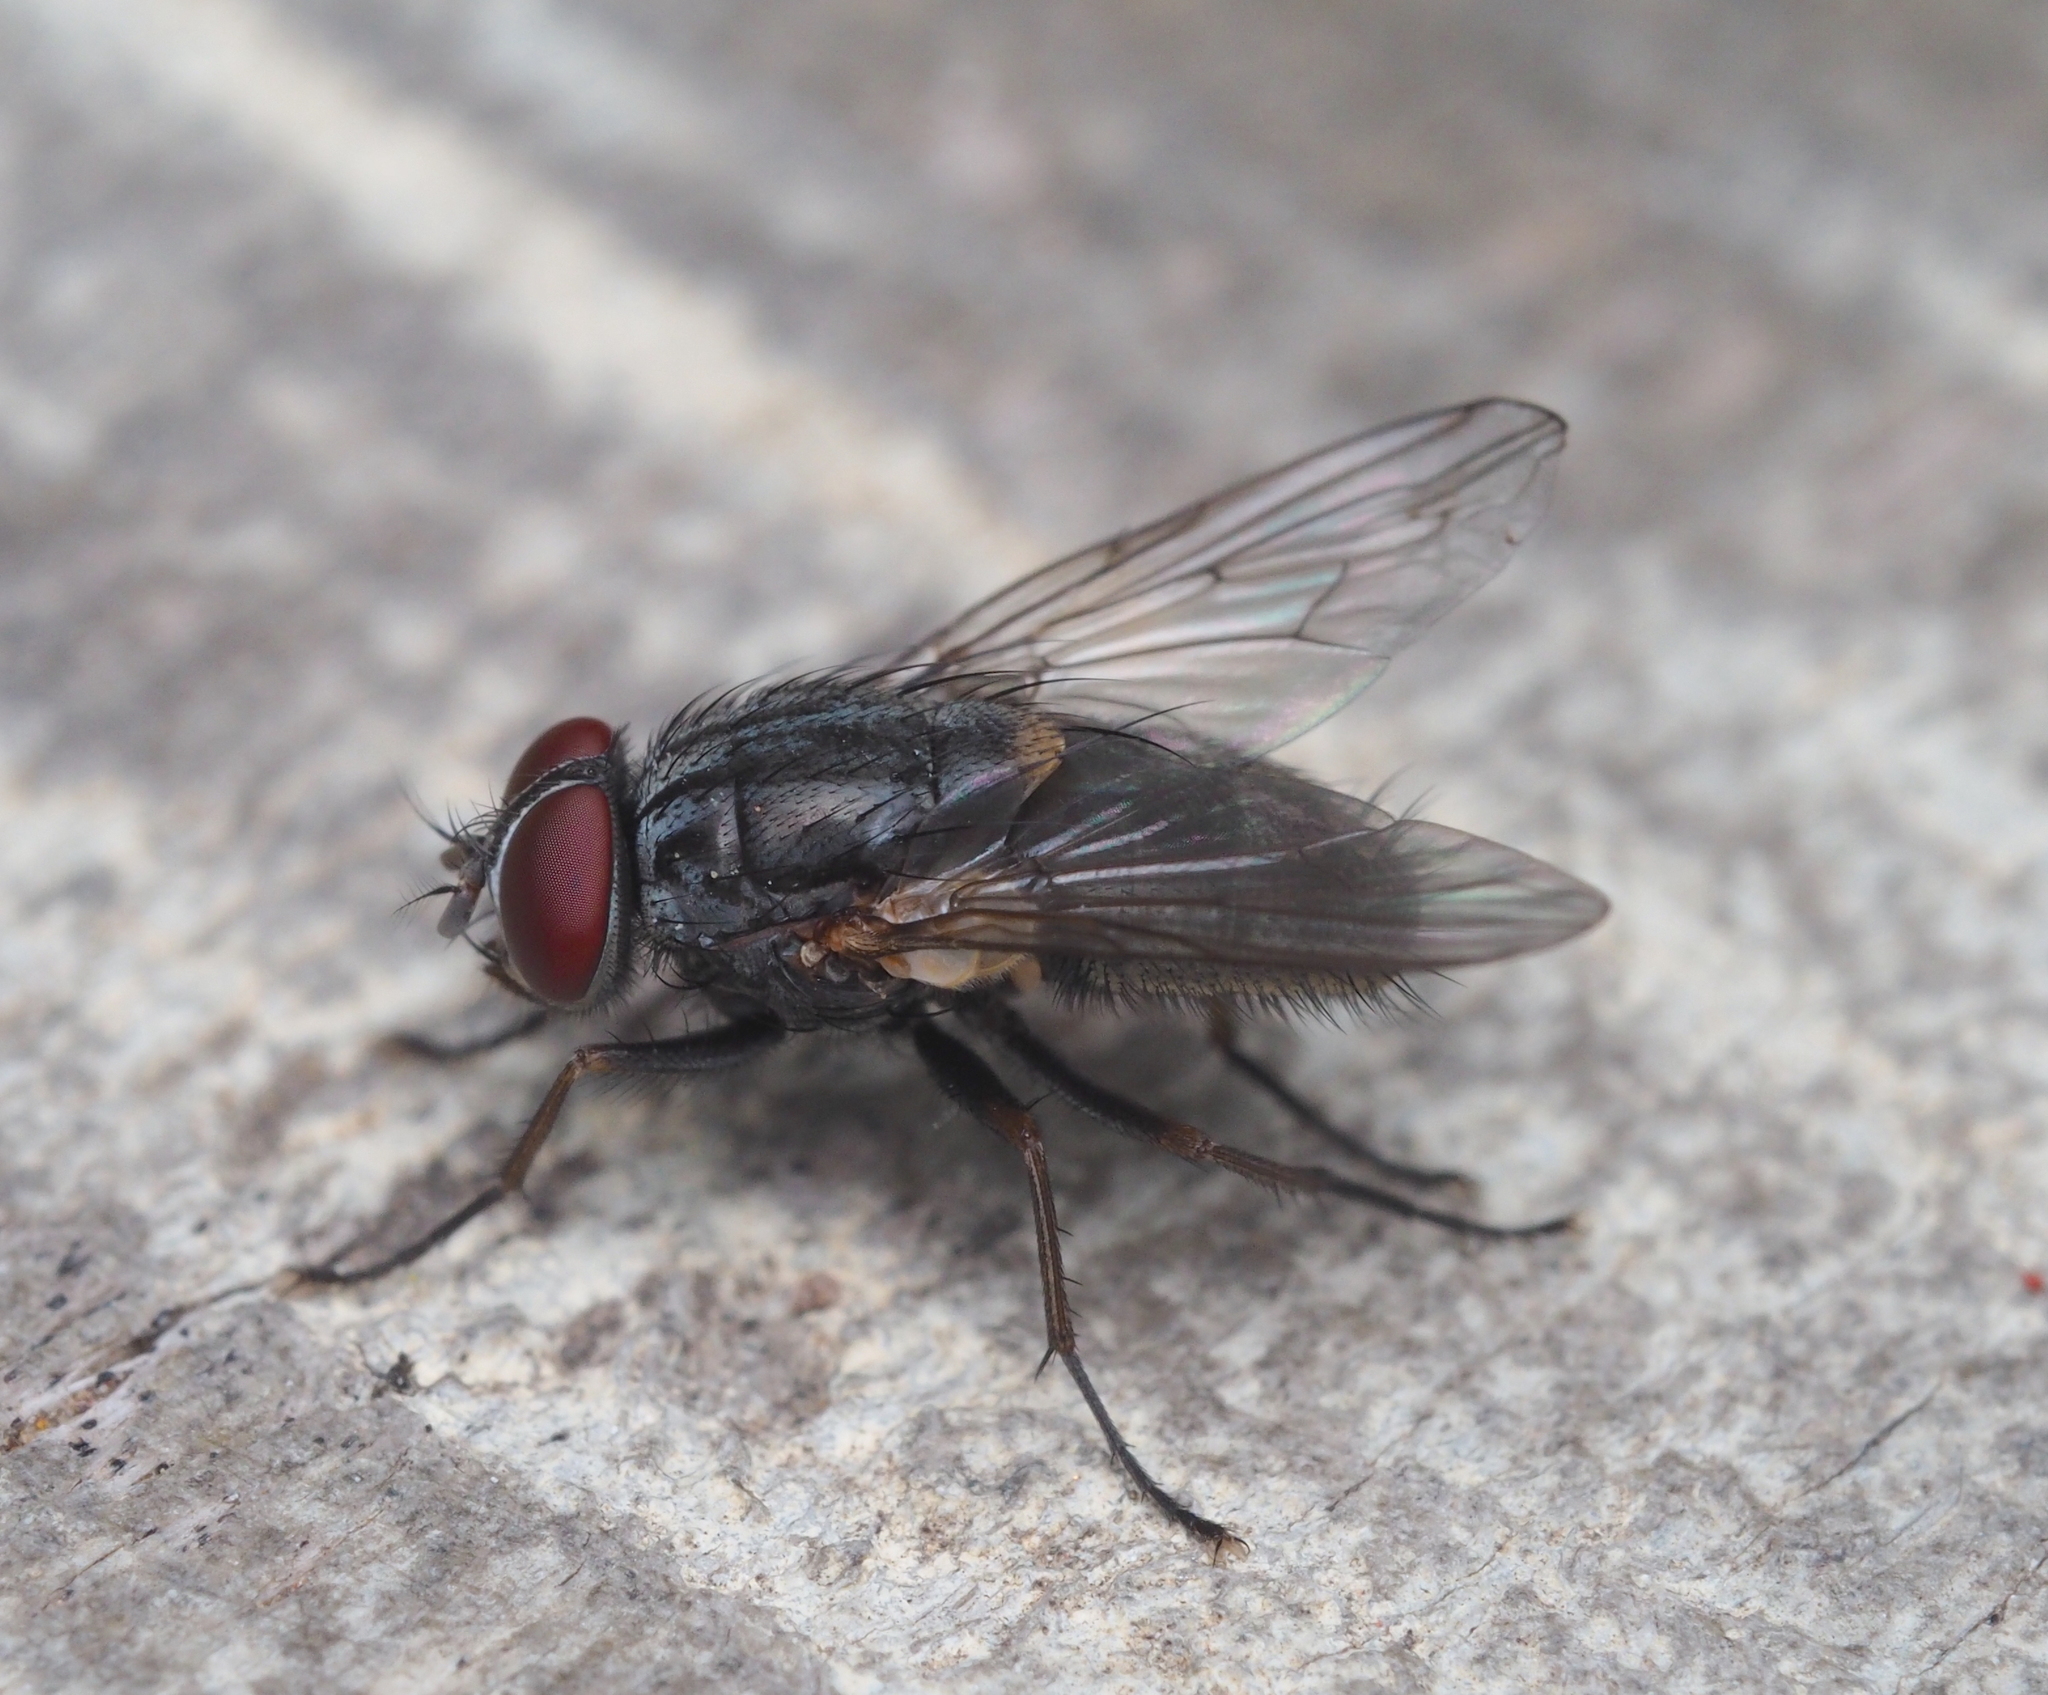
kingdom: Animalia
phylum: Arthropoda
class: Insecta
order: Diptera
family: Muscidae
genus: Muscina
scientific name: Muscina stabulans
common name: False stable fly
